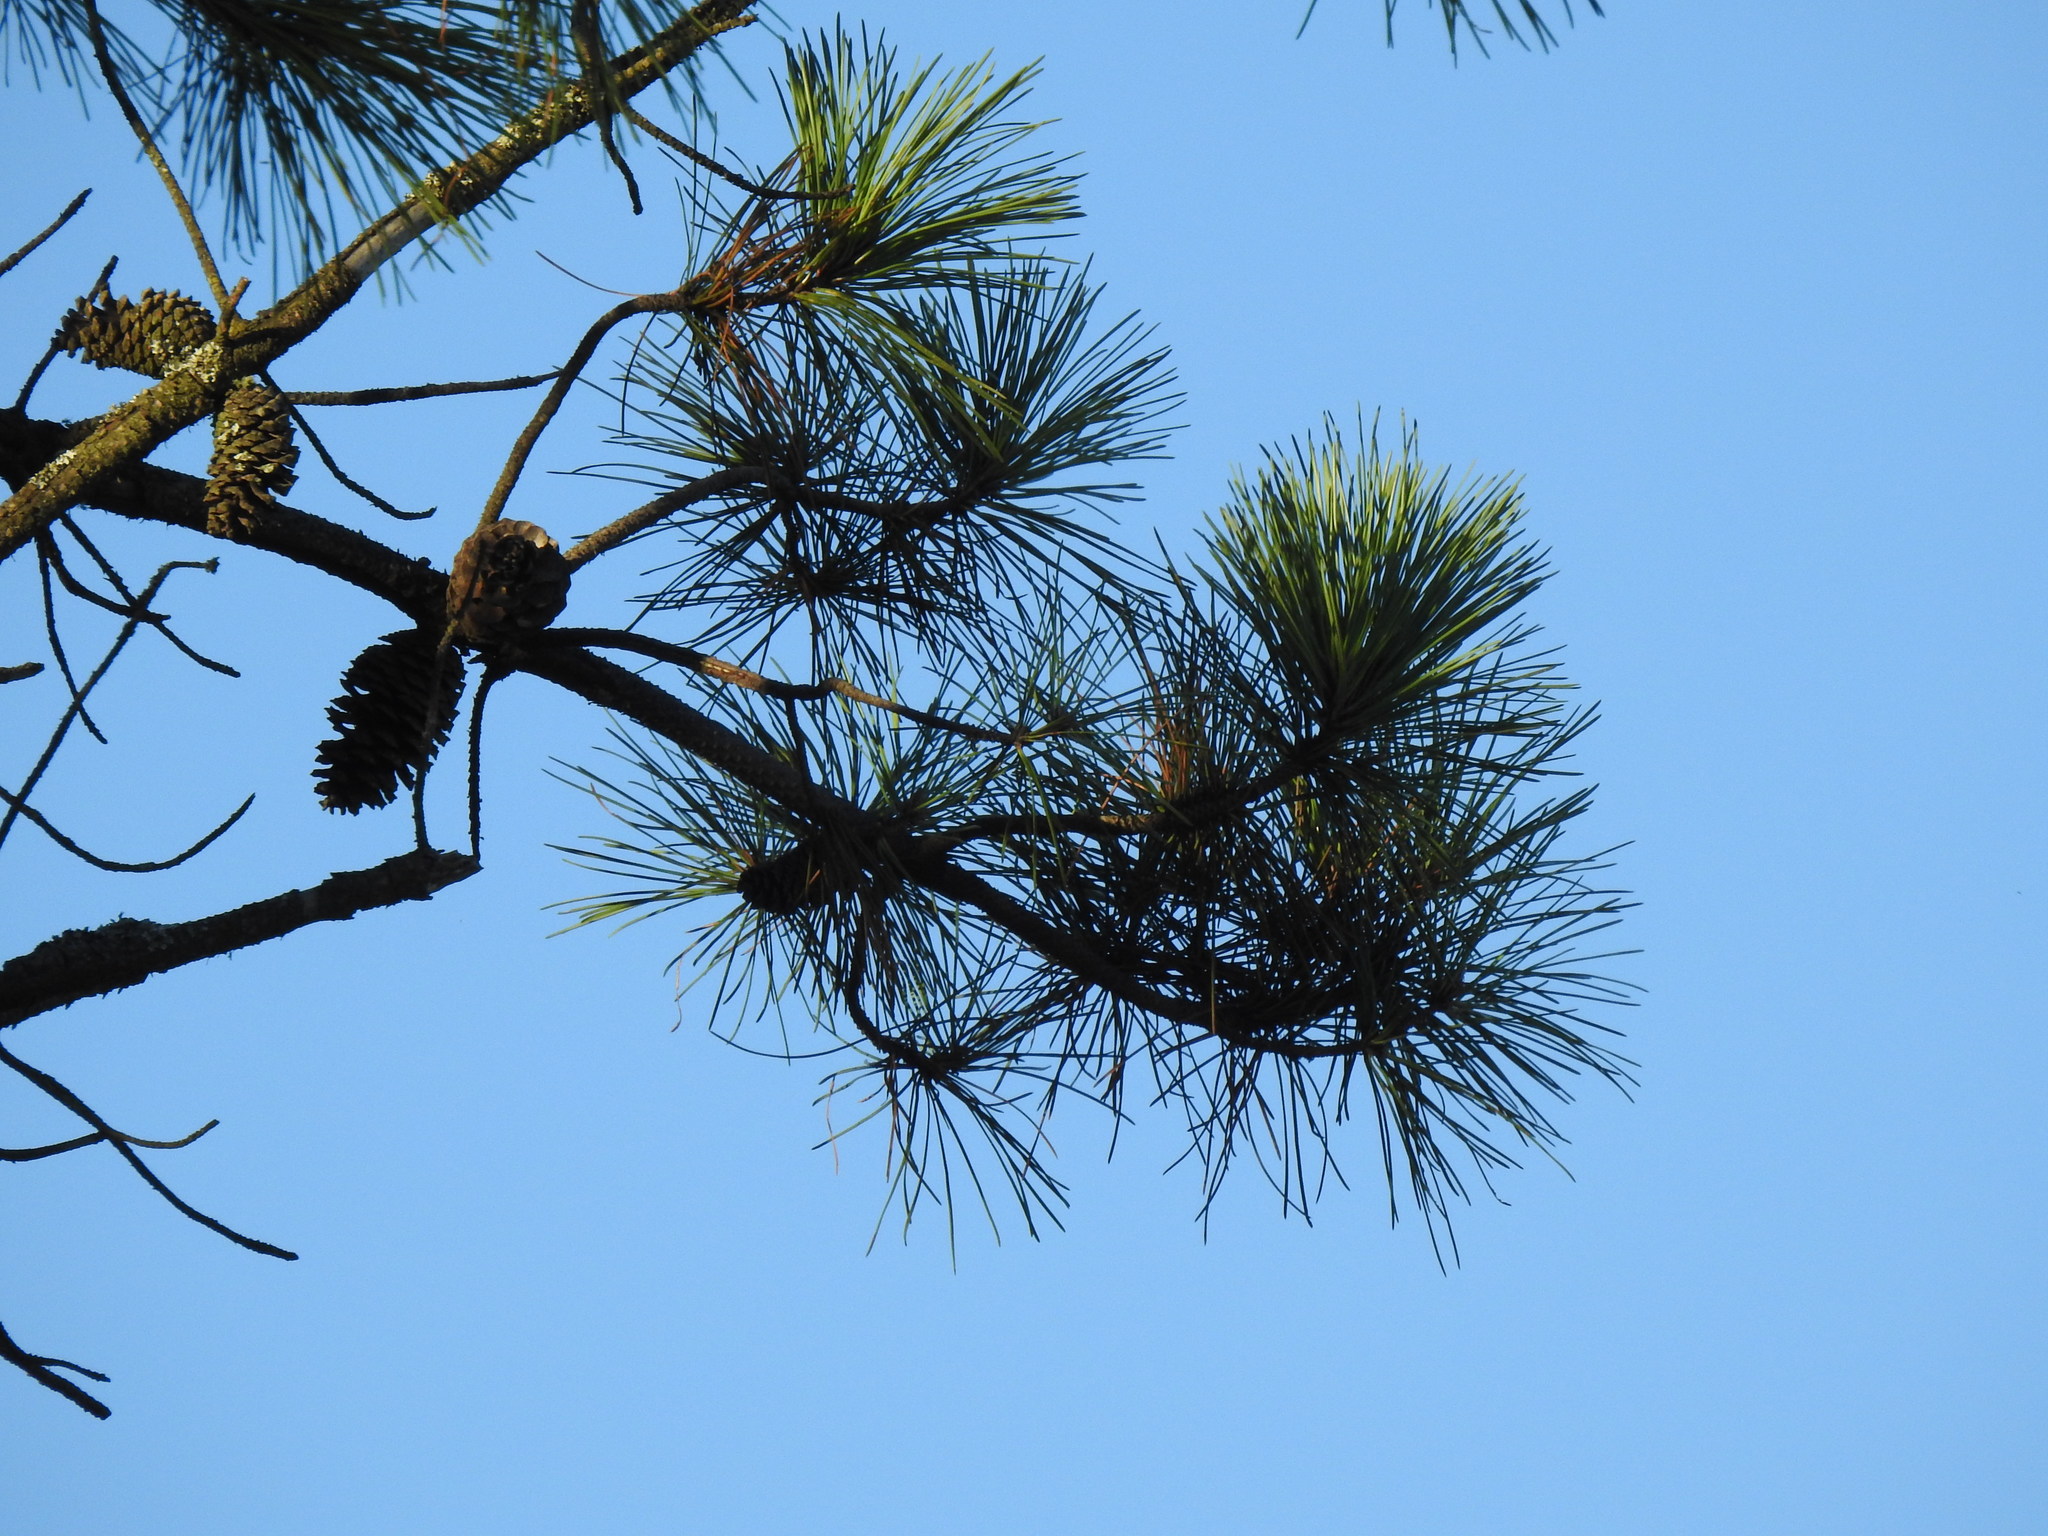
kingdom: Plantae
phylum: Tracheophyta
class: Pinopsida
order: Pinales
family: Pinaceae
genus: Pinus
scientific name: Pinus pinaster
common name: Maritime pine
